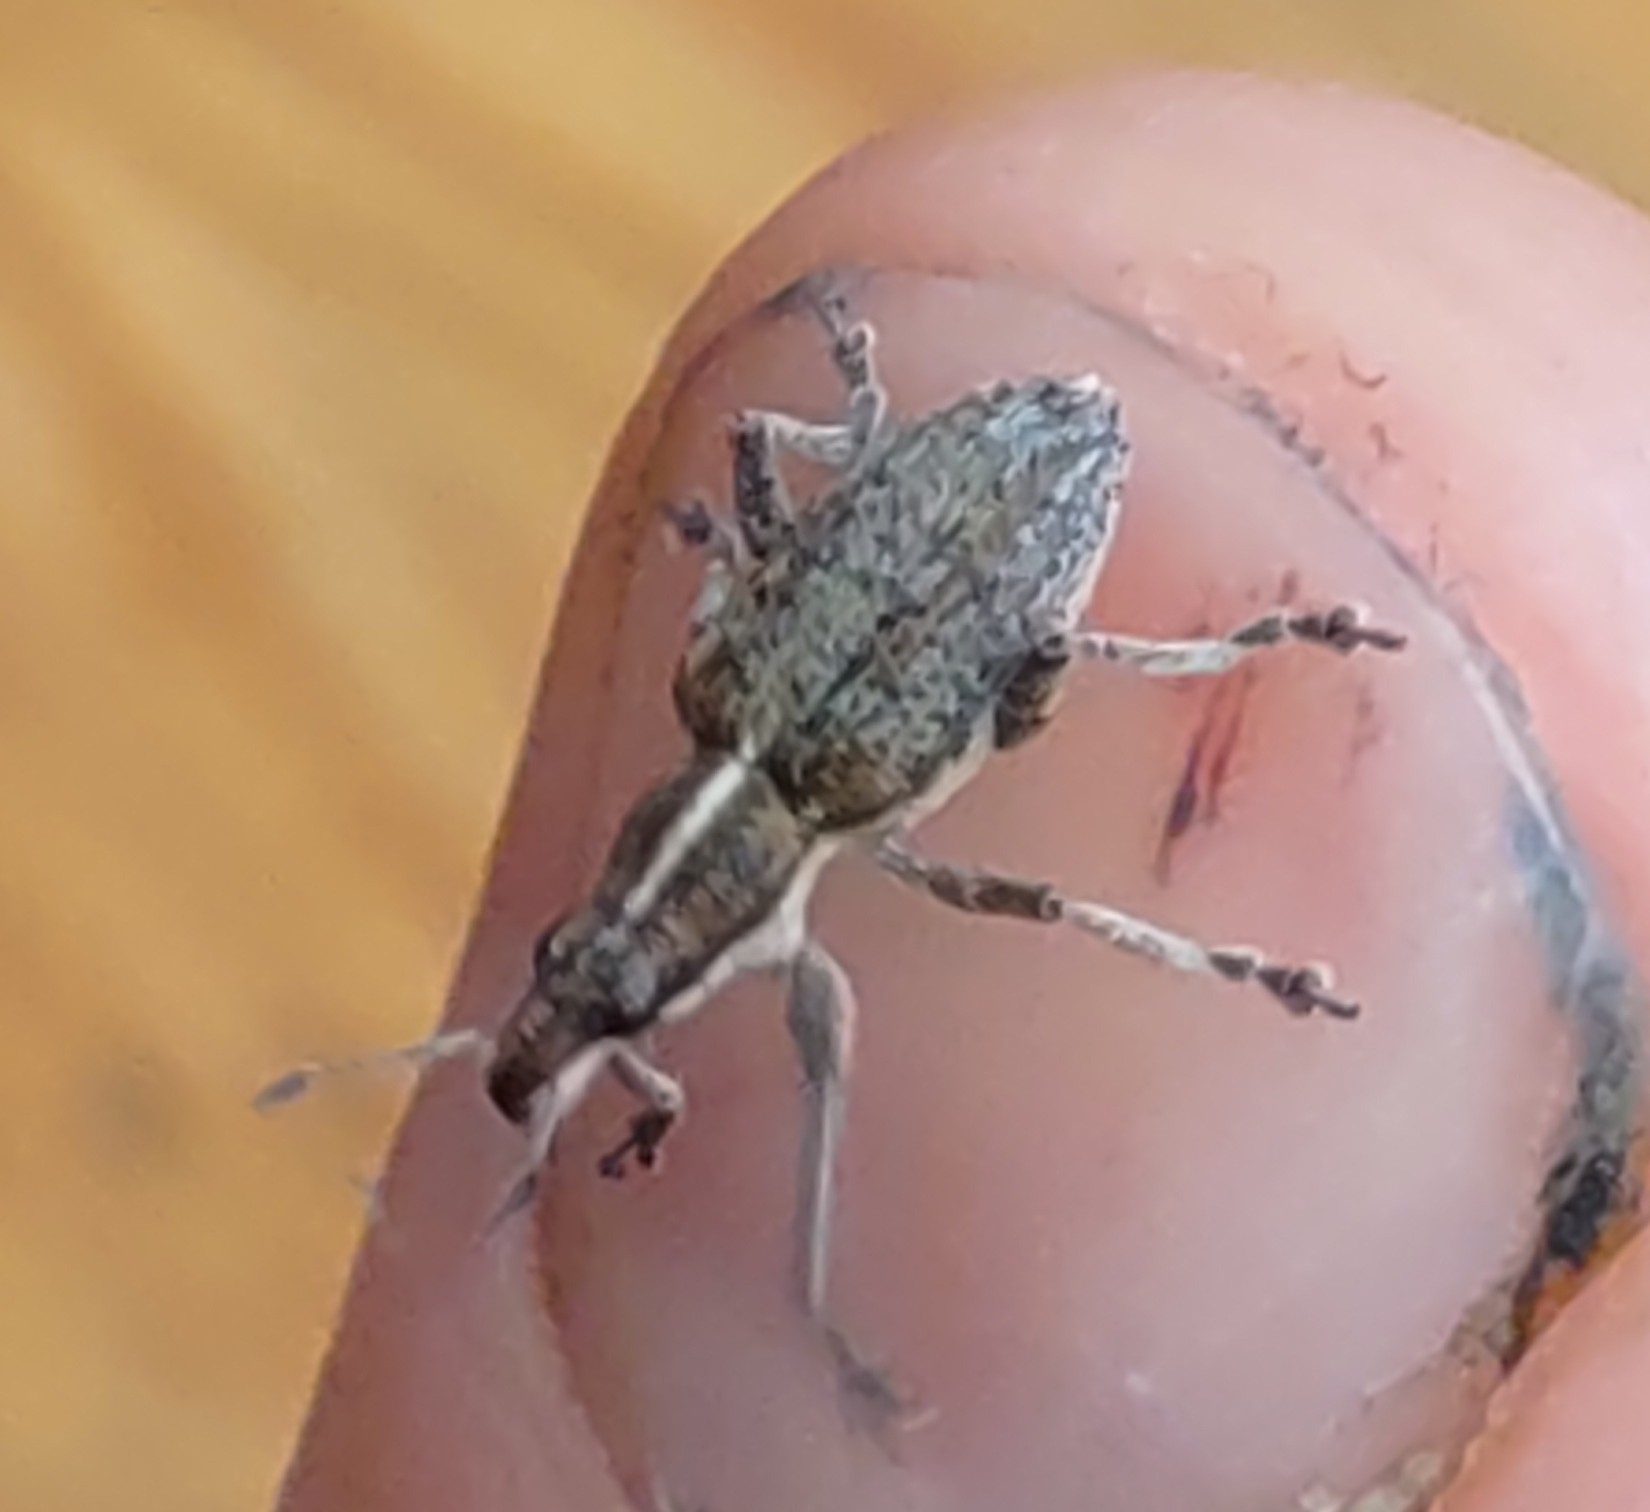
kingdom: Animalia
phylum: Arthropoda
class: Insecta
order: Coleoptera
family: Curculionidae
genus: Charagmus
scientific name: Charagmus gressorius
